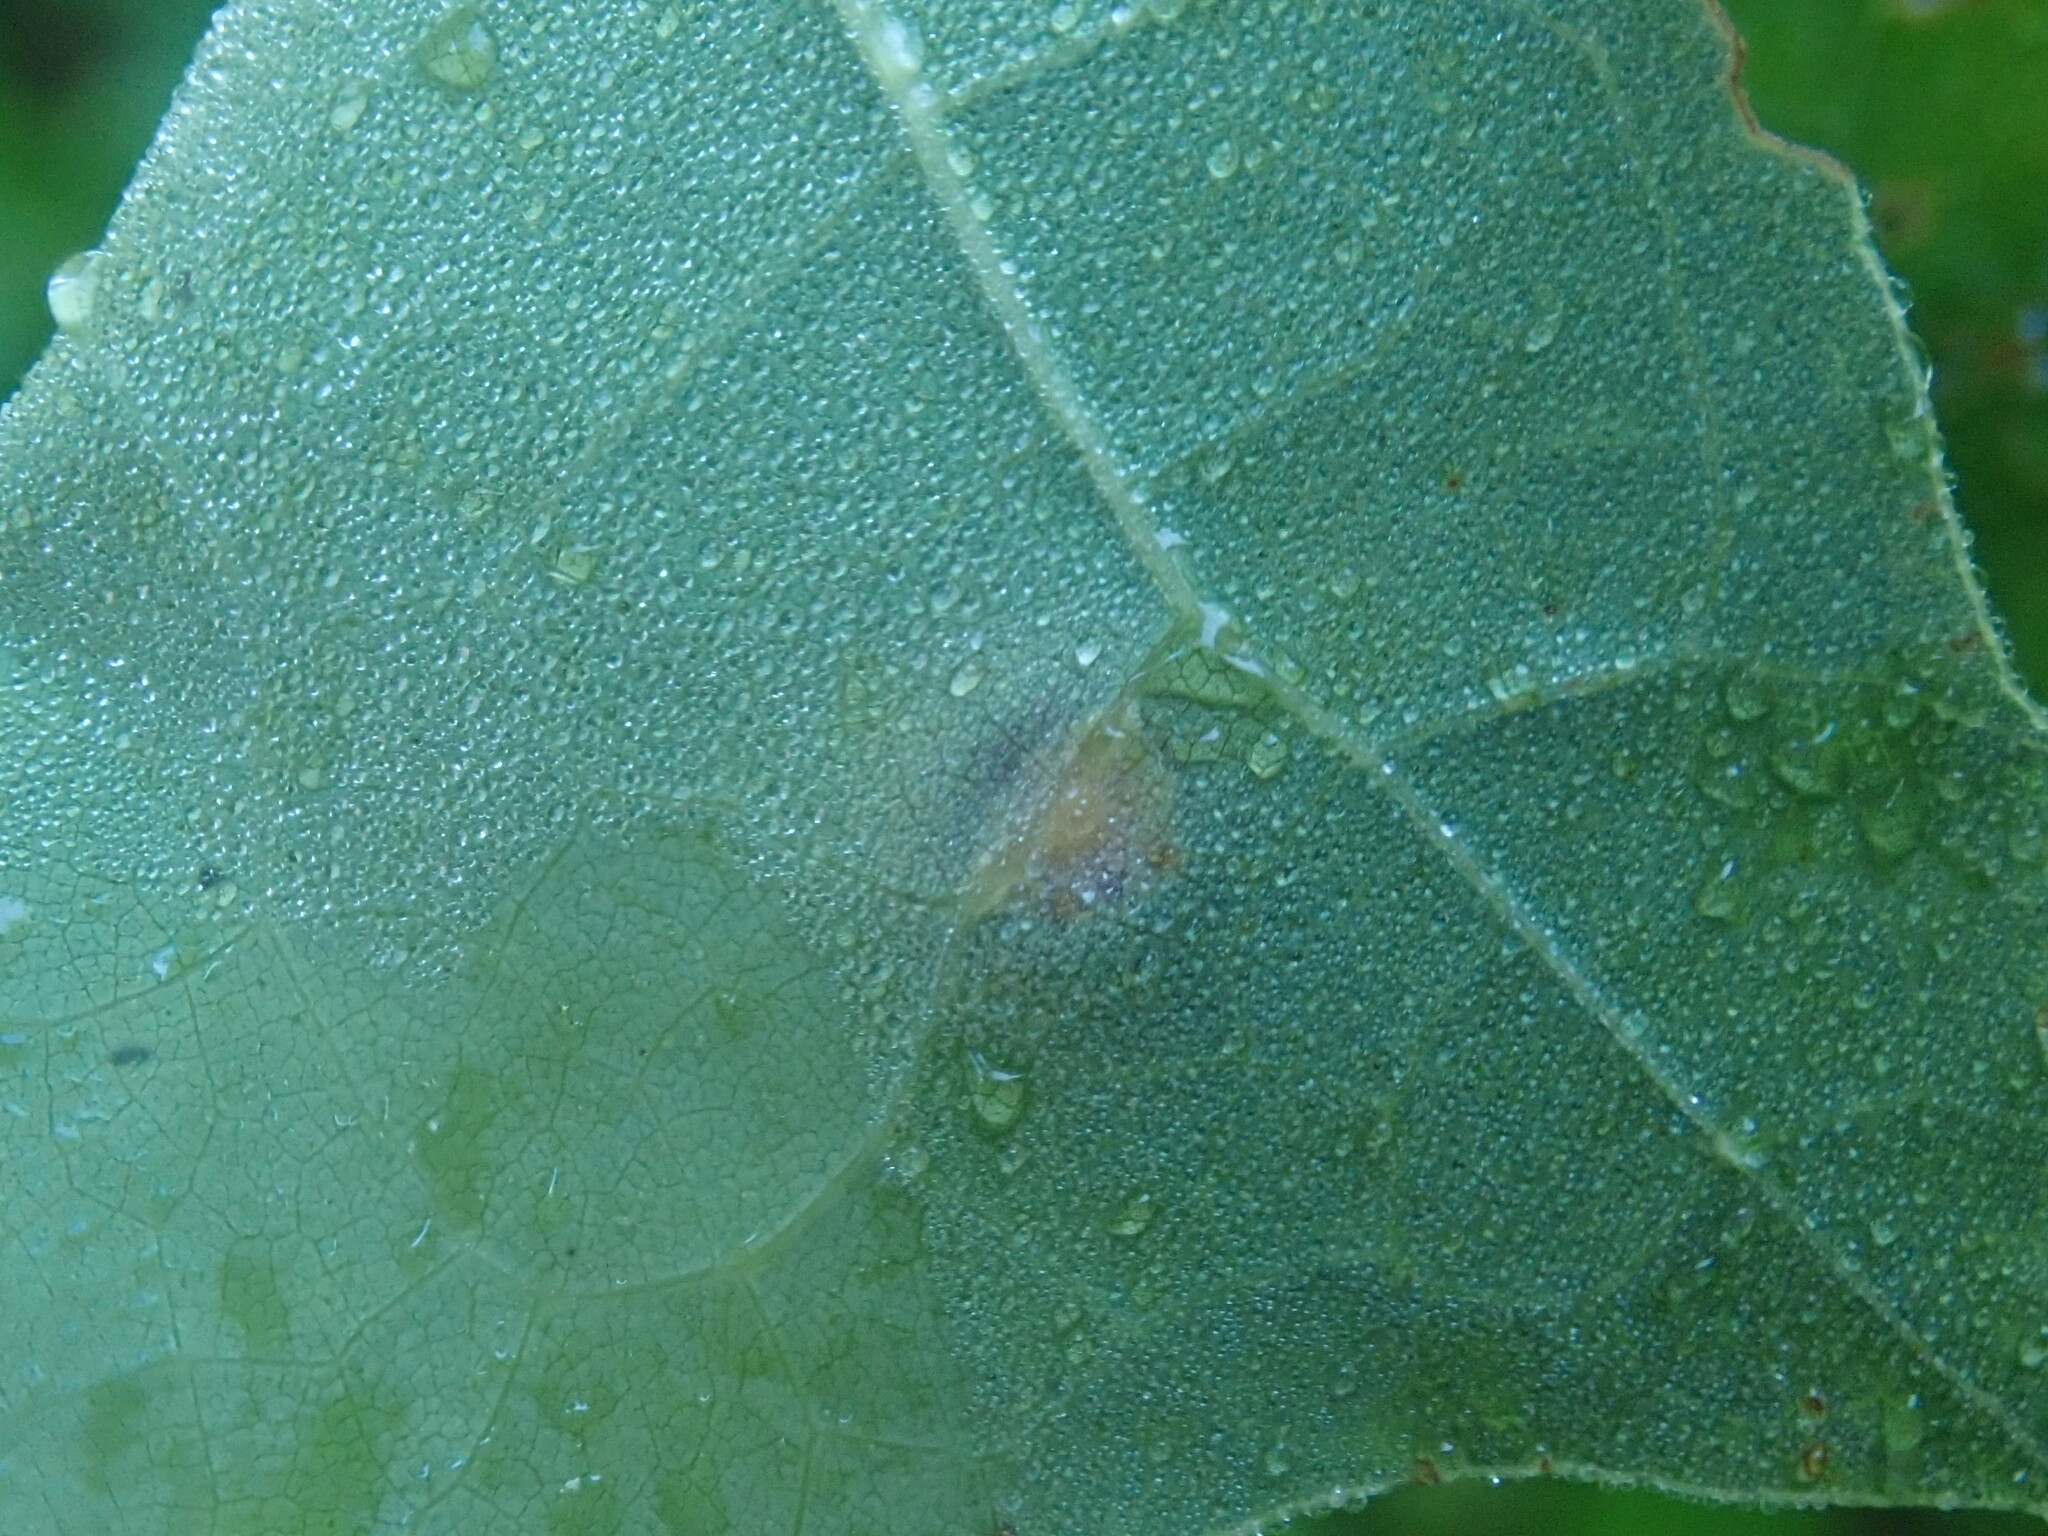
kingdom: Animalia
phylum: Arthropoda
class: Insecta
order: Diptera
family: Cecidomyiidae
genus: Polystepha
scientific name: Polystepha pilulae
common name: Oak leaf gall midge
